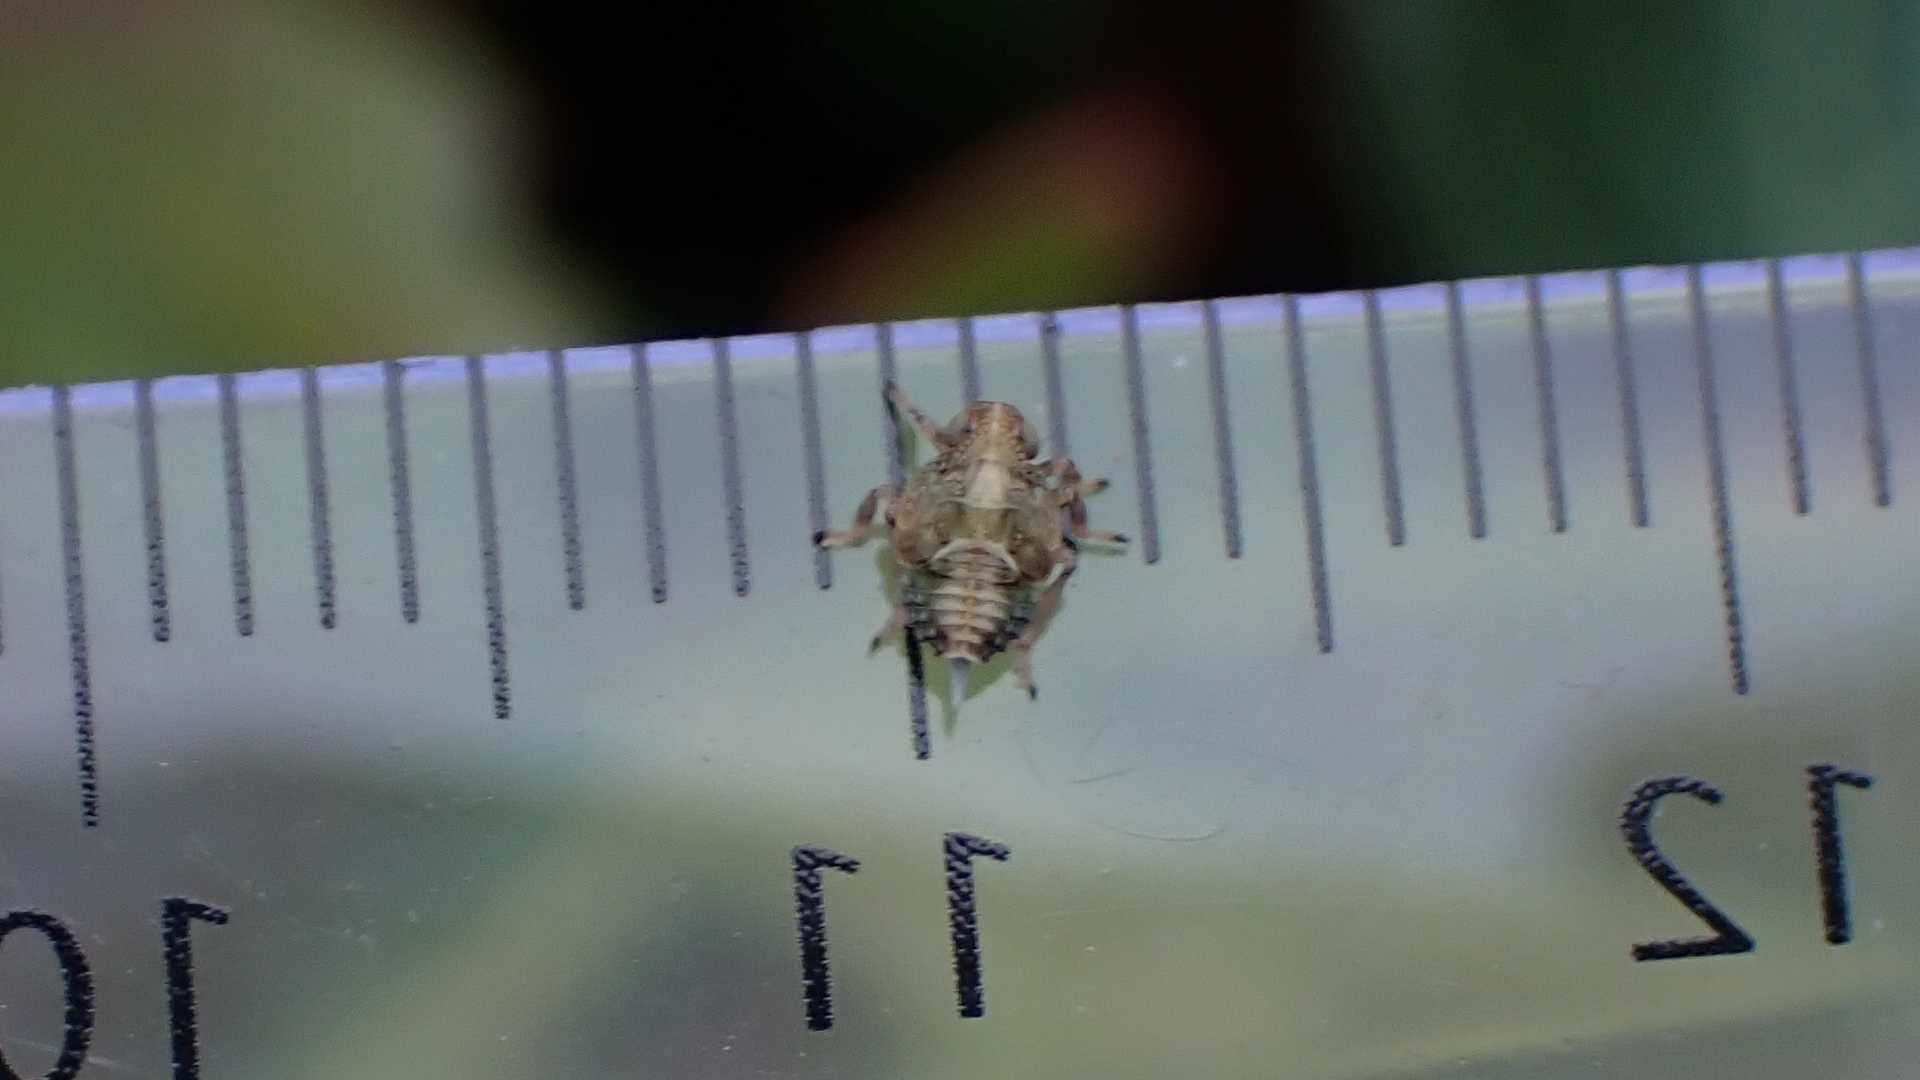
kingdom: Animalia
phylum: Arthropoda
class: Insecta
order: Hemiptera
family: Issidae
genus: Issus
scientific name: Issus coleoptratus
